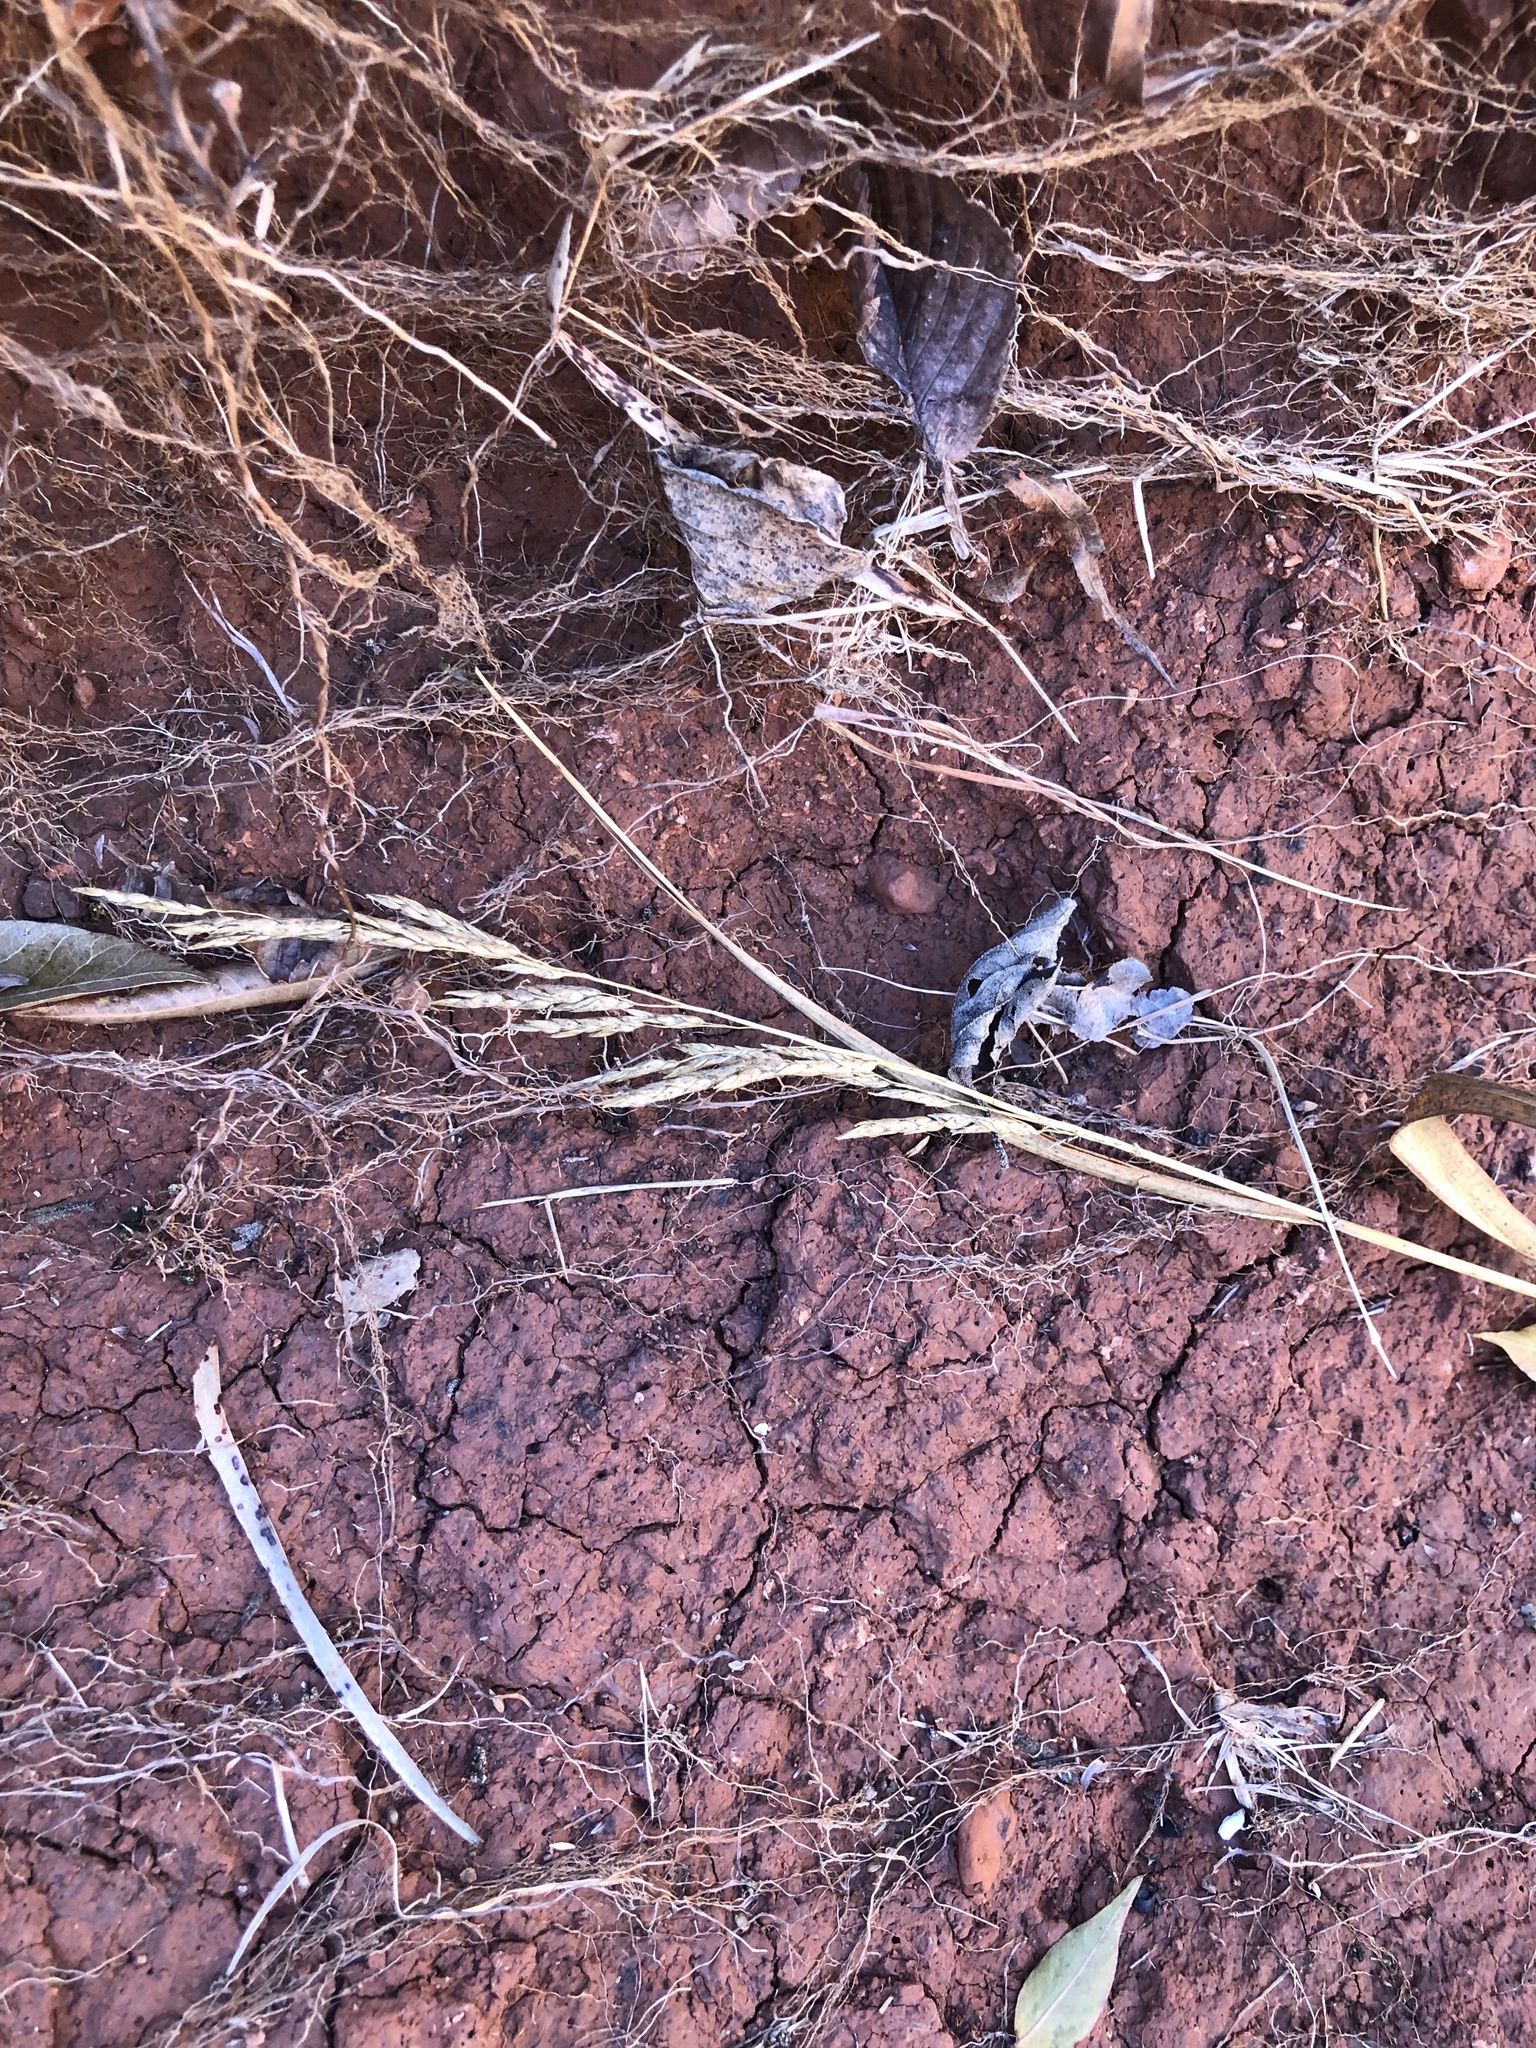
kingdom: Plantae
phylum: Tracheophyta
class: Liliopsida
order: Poales
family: Poaceae
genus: Sorghum
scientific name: Sorghum halepense
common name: Johnson-grass
